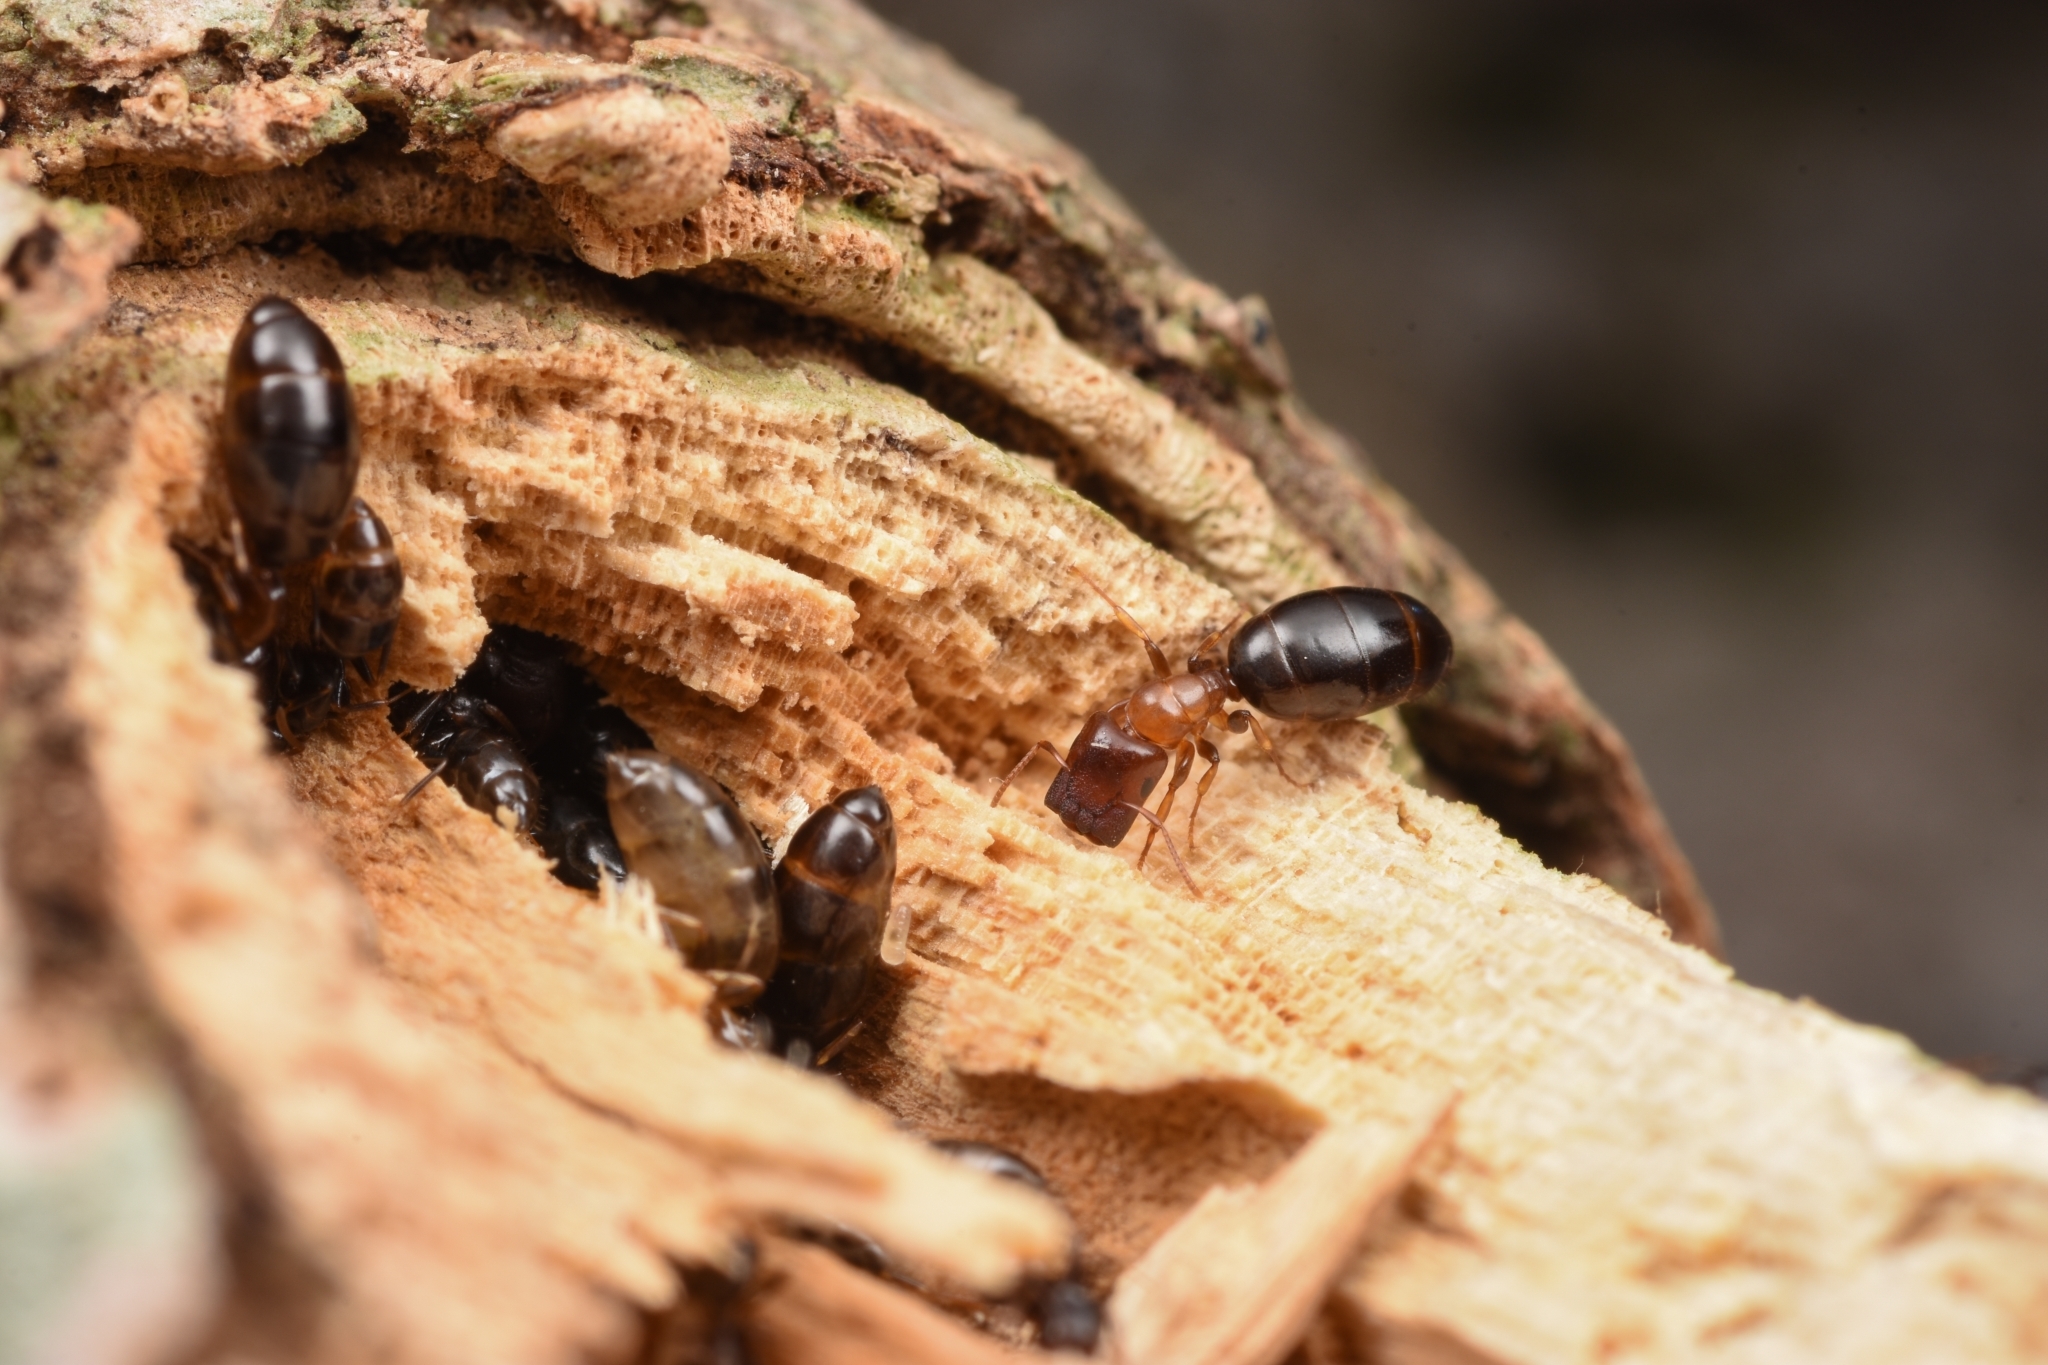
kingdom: Animalia
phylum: Arthropoda
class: Insecta
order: Hymenoptera
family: Formicidae
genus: Colobopsis
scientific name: Colobopsis
